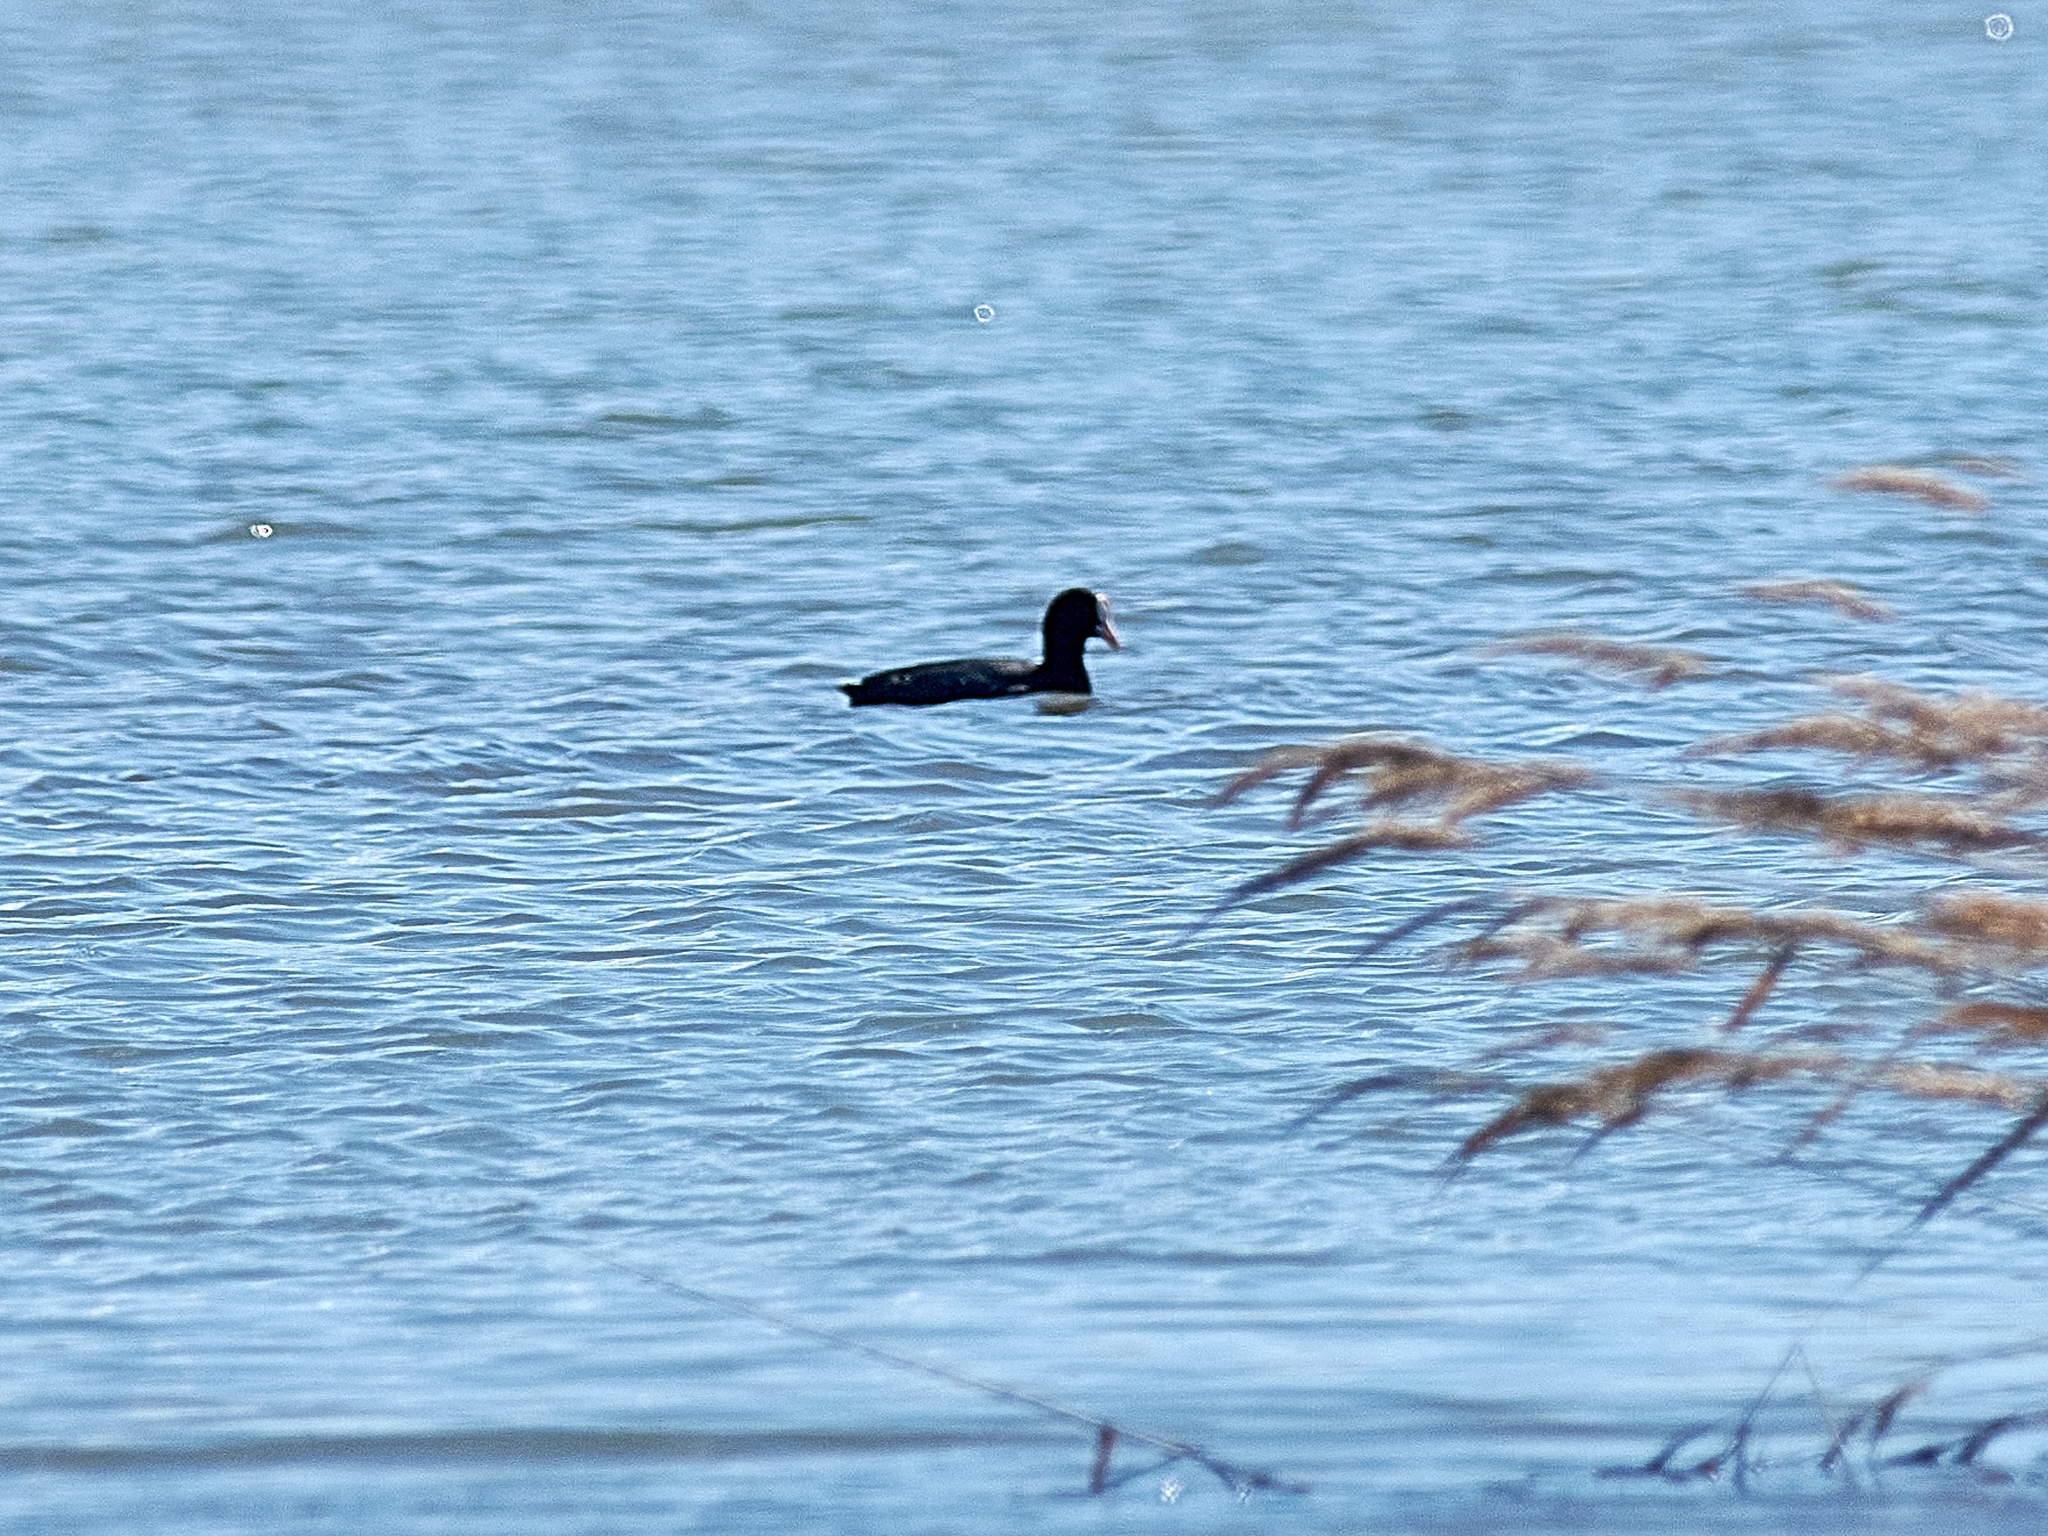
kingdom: Animalia
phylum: Chordata
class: Aves
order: Gruiformes
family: Rallidae
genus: Fulica
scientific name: Fulica atra
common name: Eurasian coot
